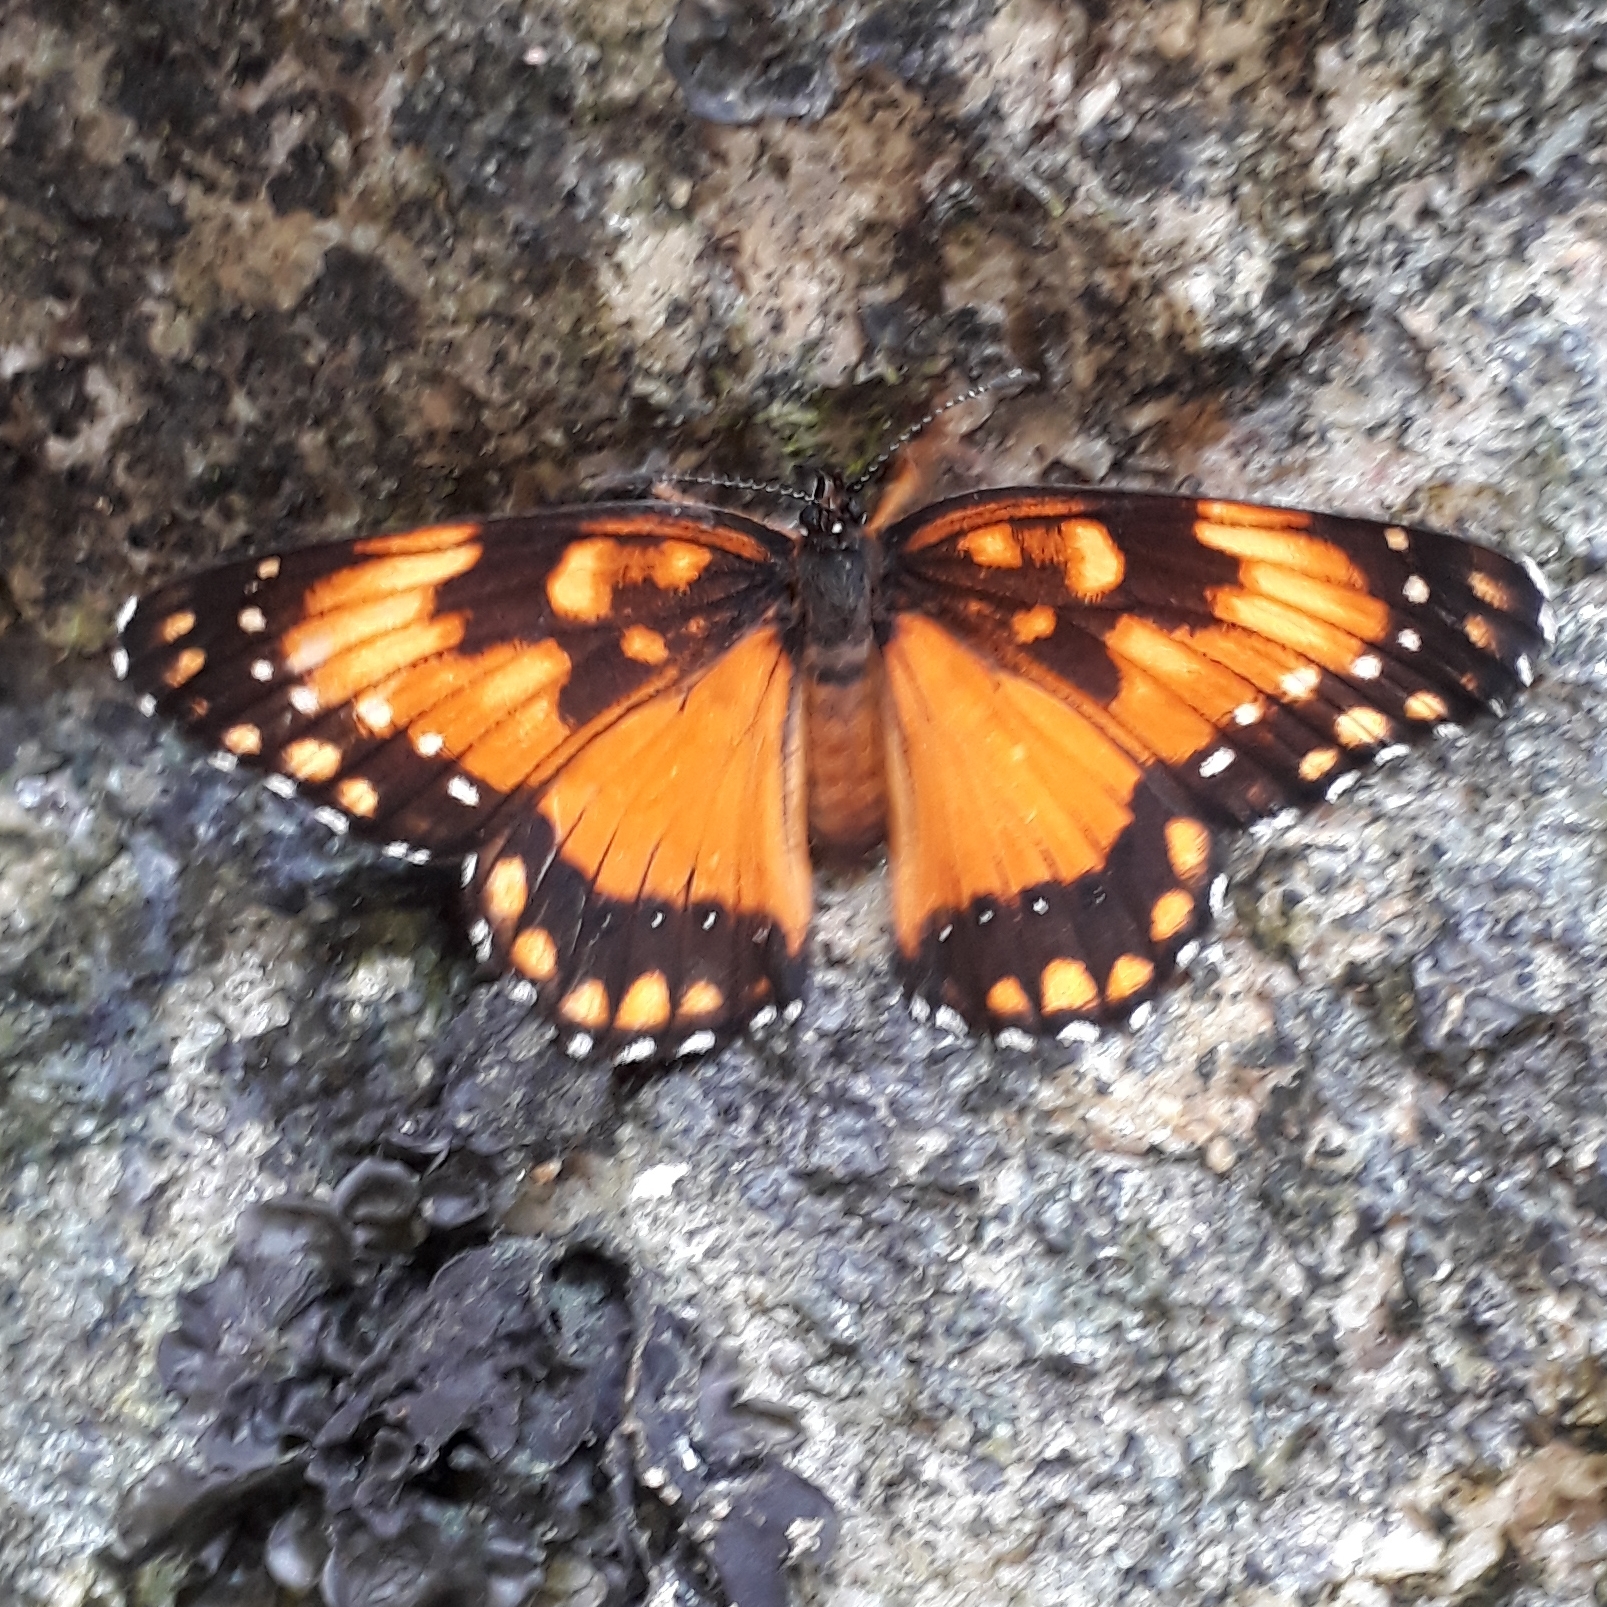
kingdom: Animalia
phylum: Arthropoda
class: Insecta
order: Lepidoptera
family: Nymphalidae
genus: Chlosyne
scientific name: Chlosyne lacinia
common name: Bordered patch
